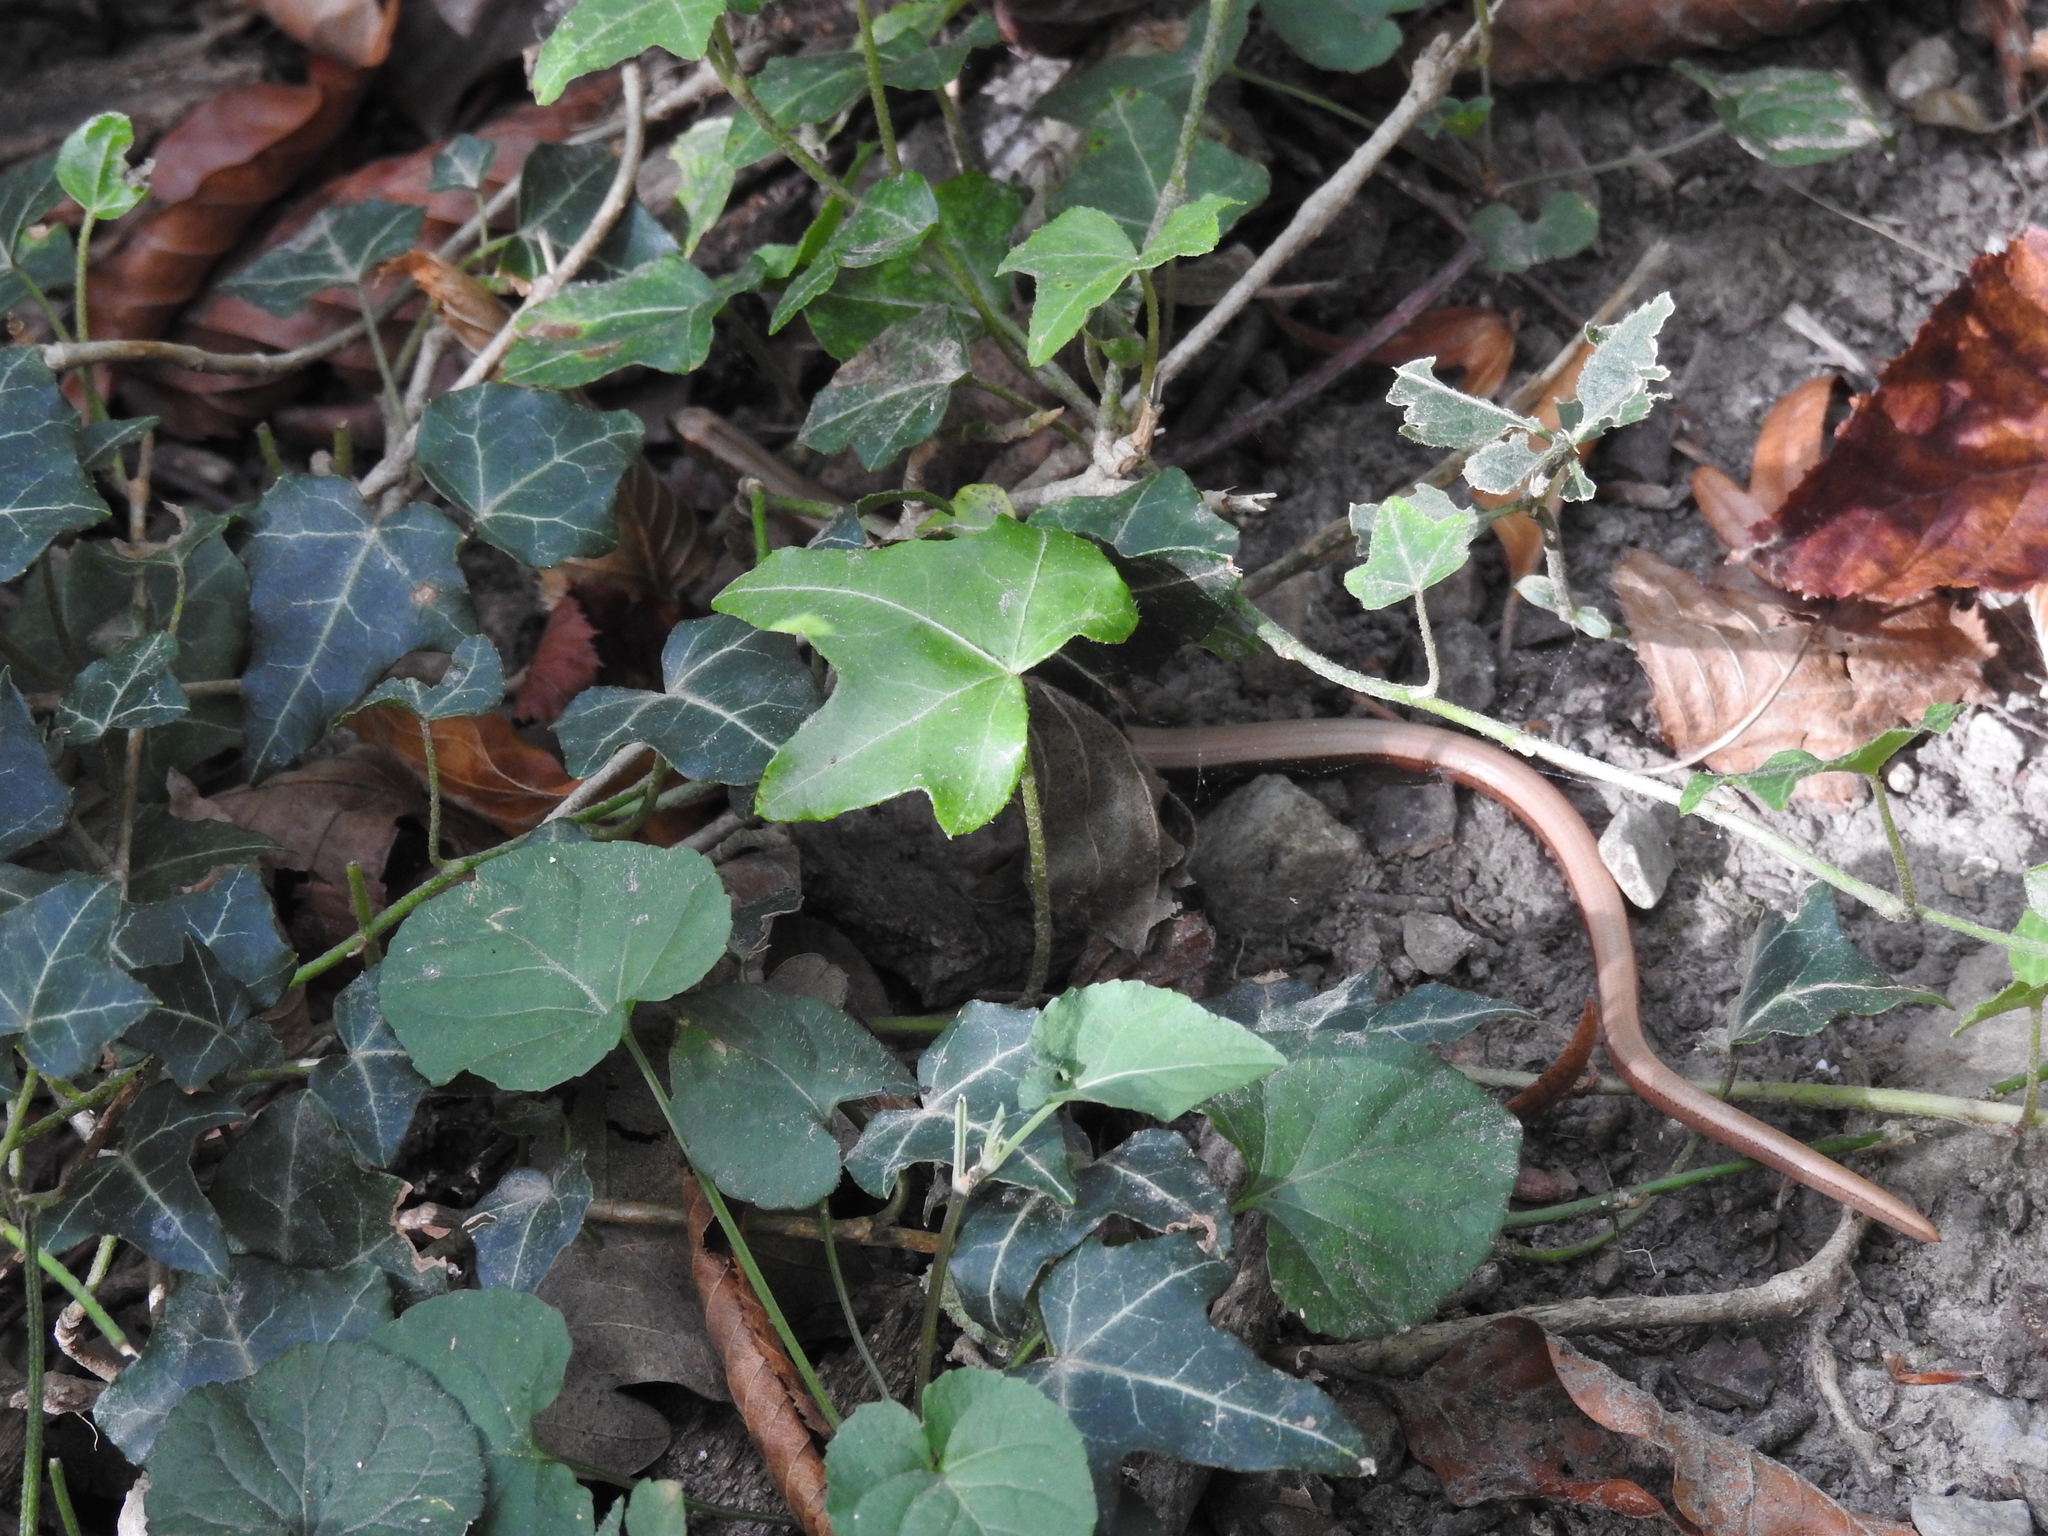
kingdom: Animalia
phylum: Chordata
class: Squamata
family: Anguidae
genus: Anguis
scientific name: Anguis fragilis
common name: Slow worm
